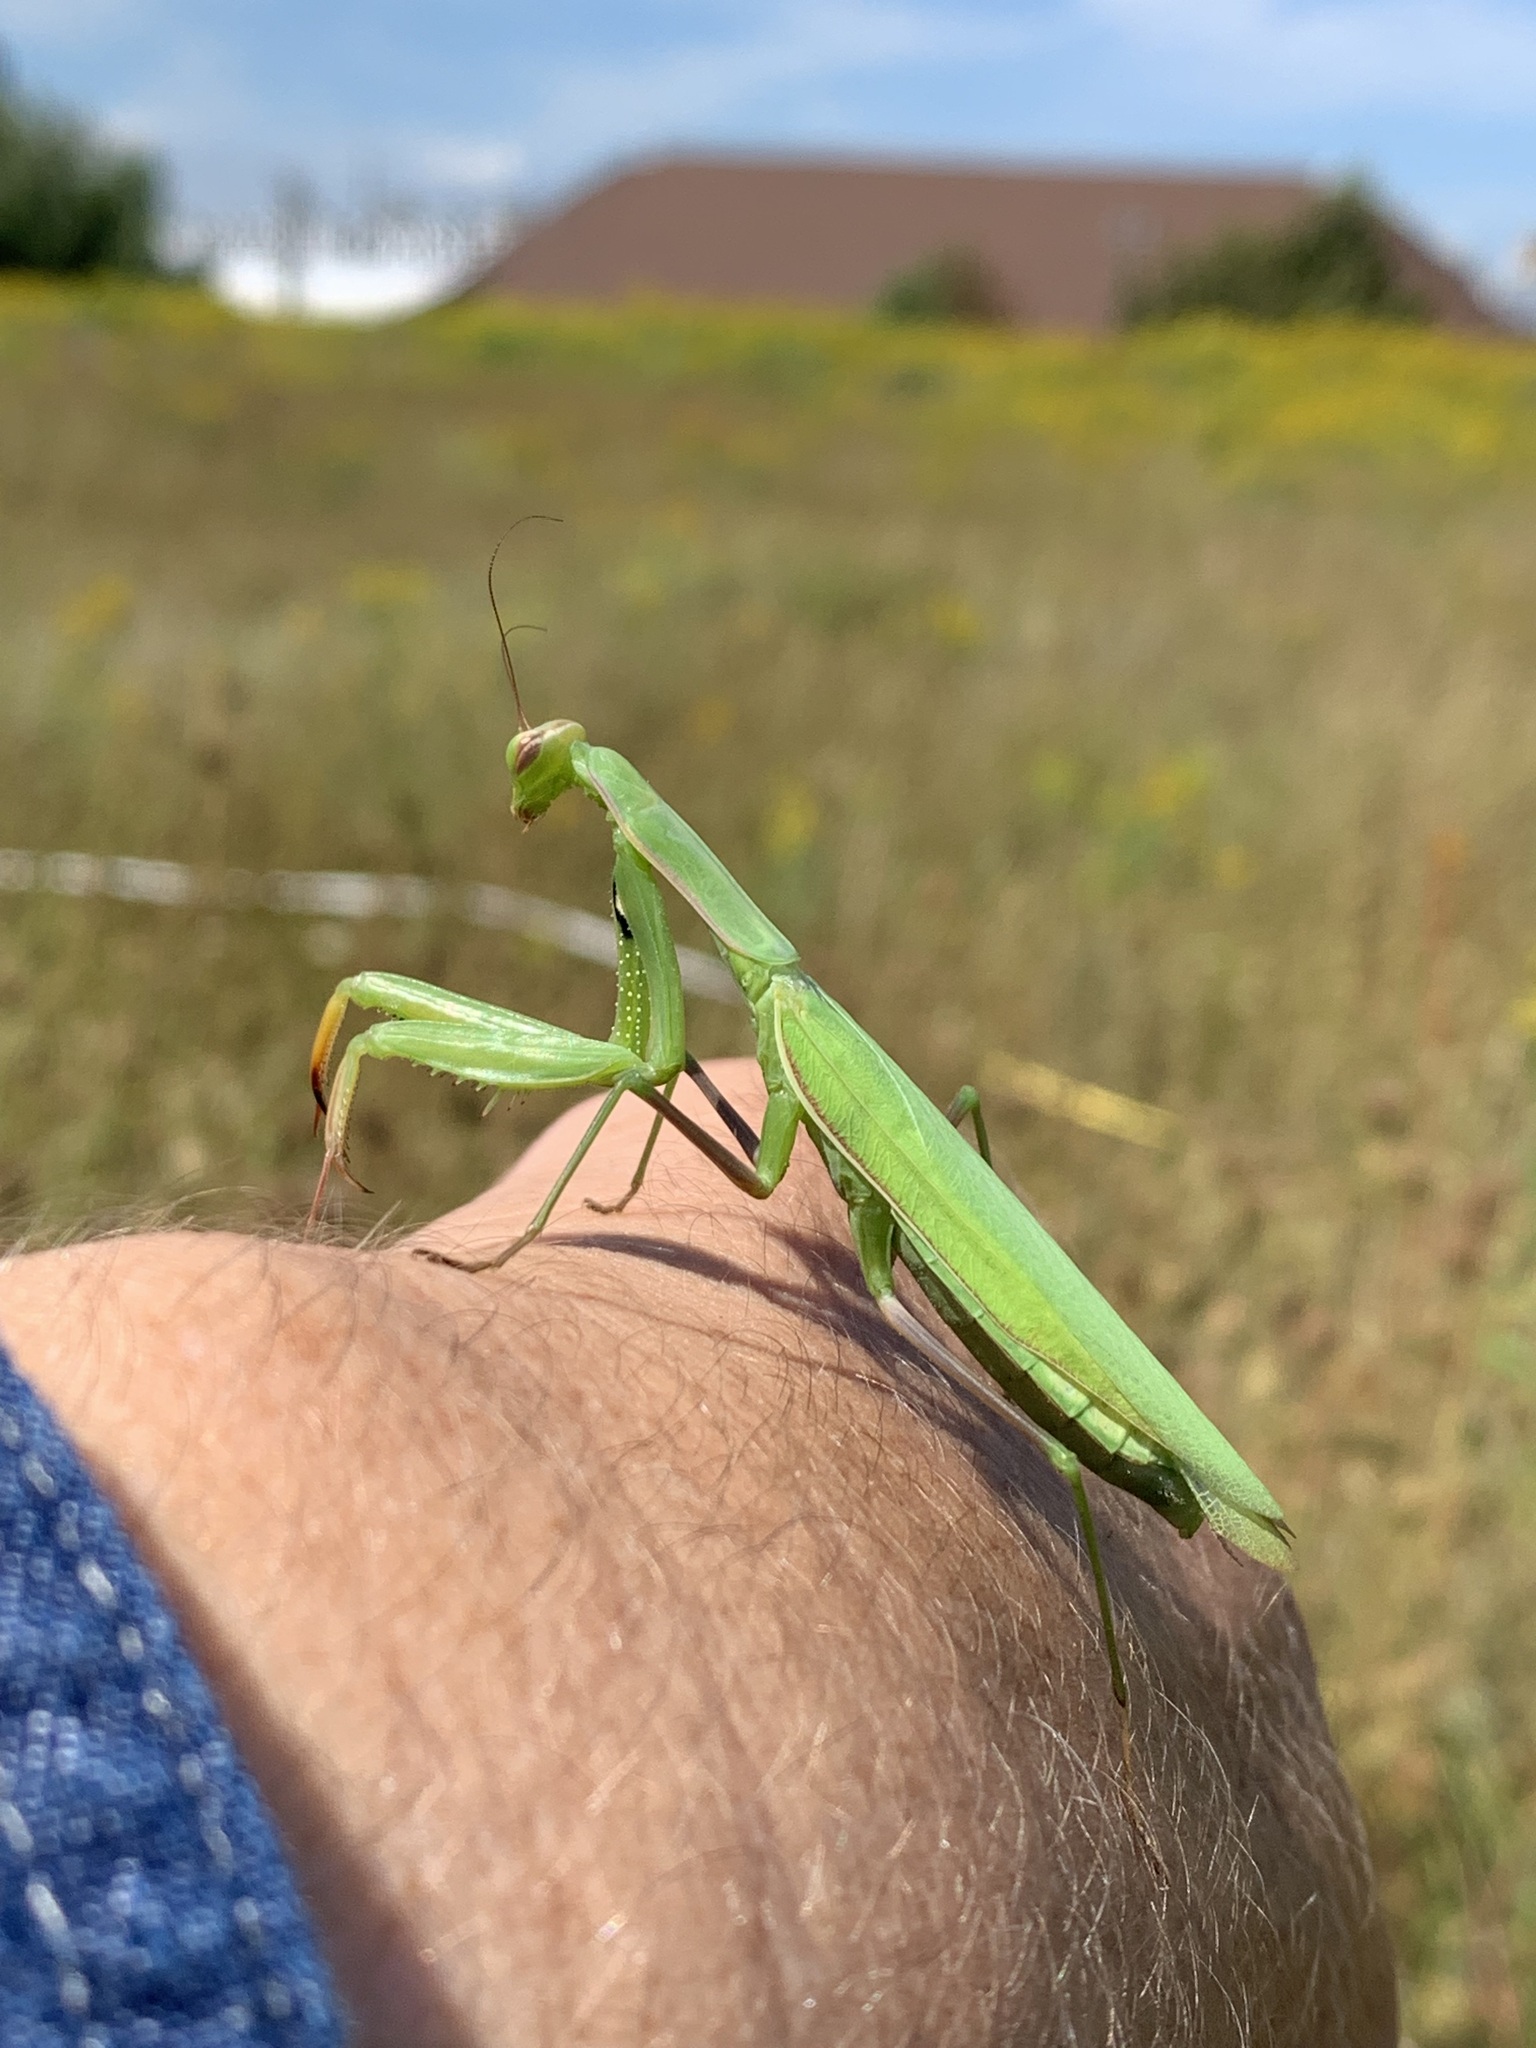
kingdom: Animalia
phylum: Arthropoda
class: Insecta
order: Mantodea
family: Mantidae
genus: Mantis
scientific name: Mantis religiosa
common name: Praying mantis
